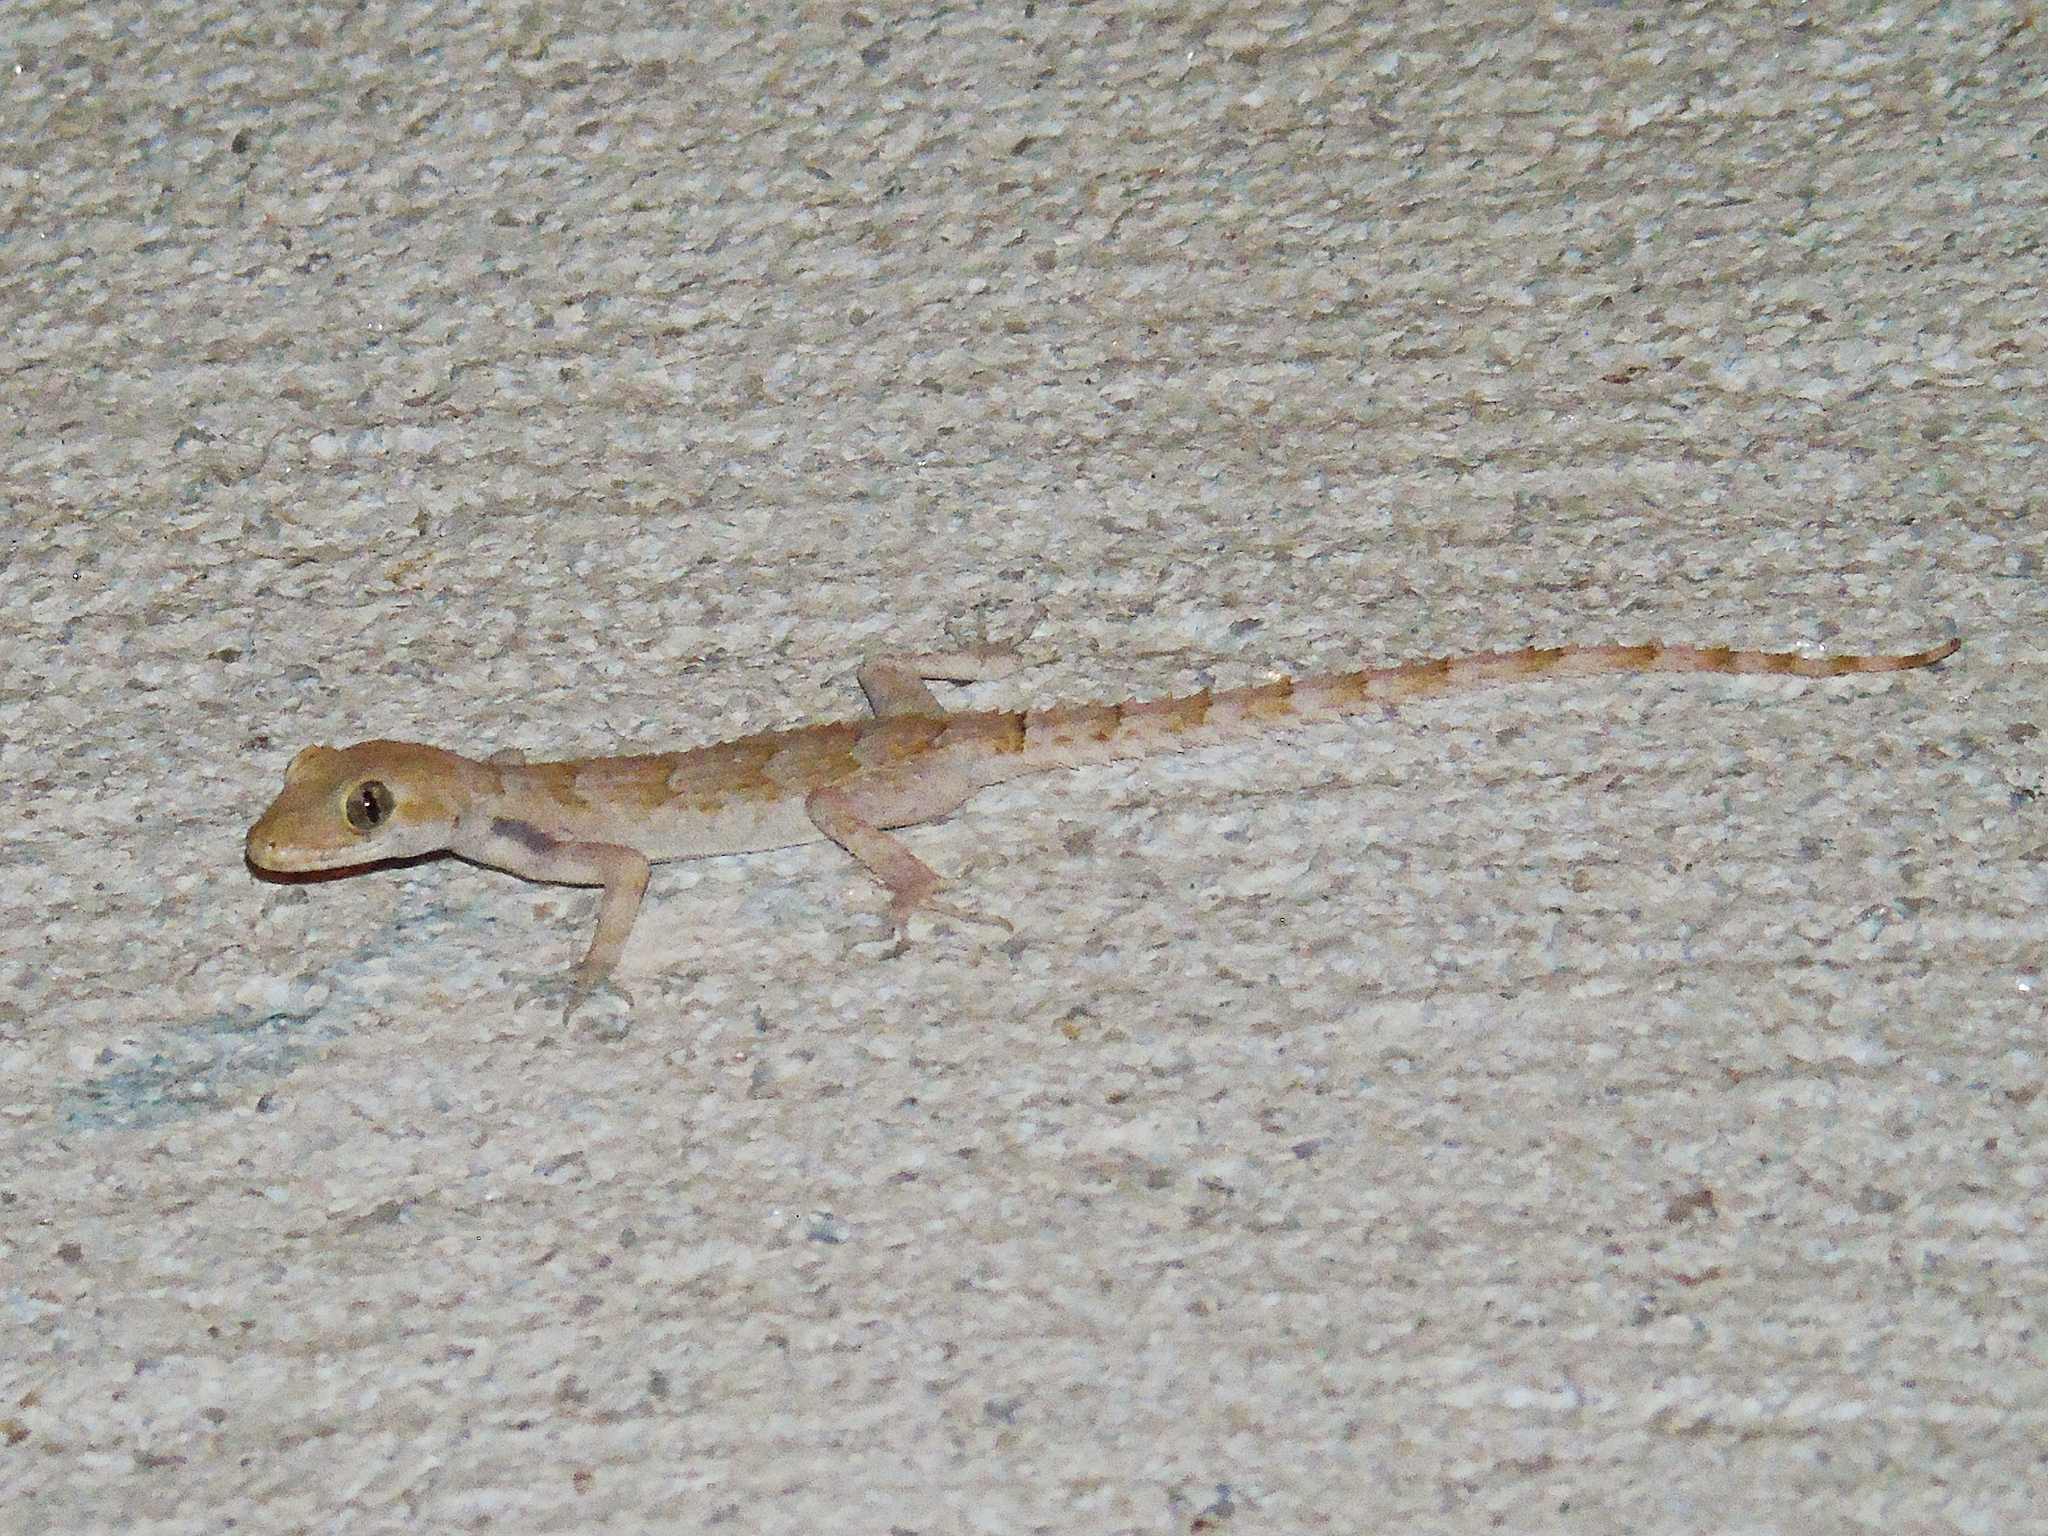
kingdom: Animalia
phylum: Chordata
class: Squamata
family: Gekkonidae
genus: Mediodactylus
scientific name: Mediodactylus orientalis
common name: Mediterranean thin-toed gecko
